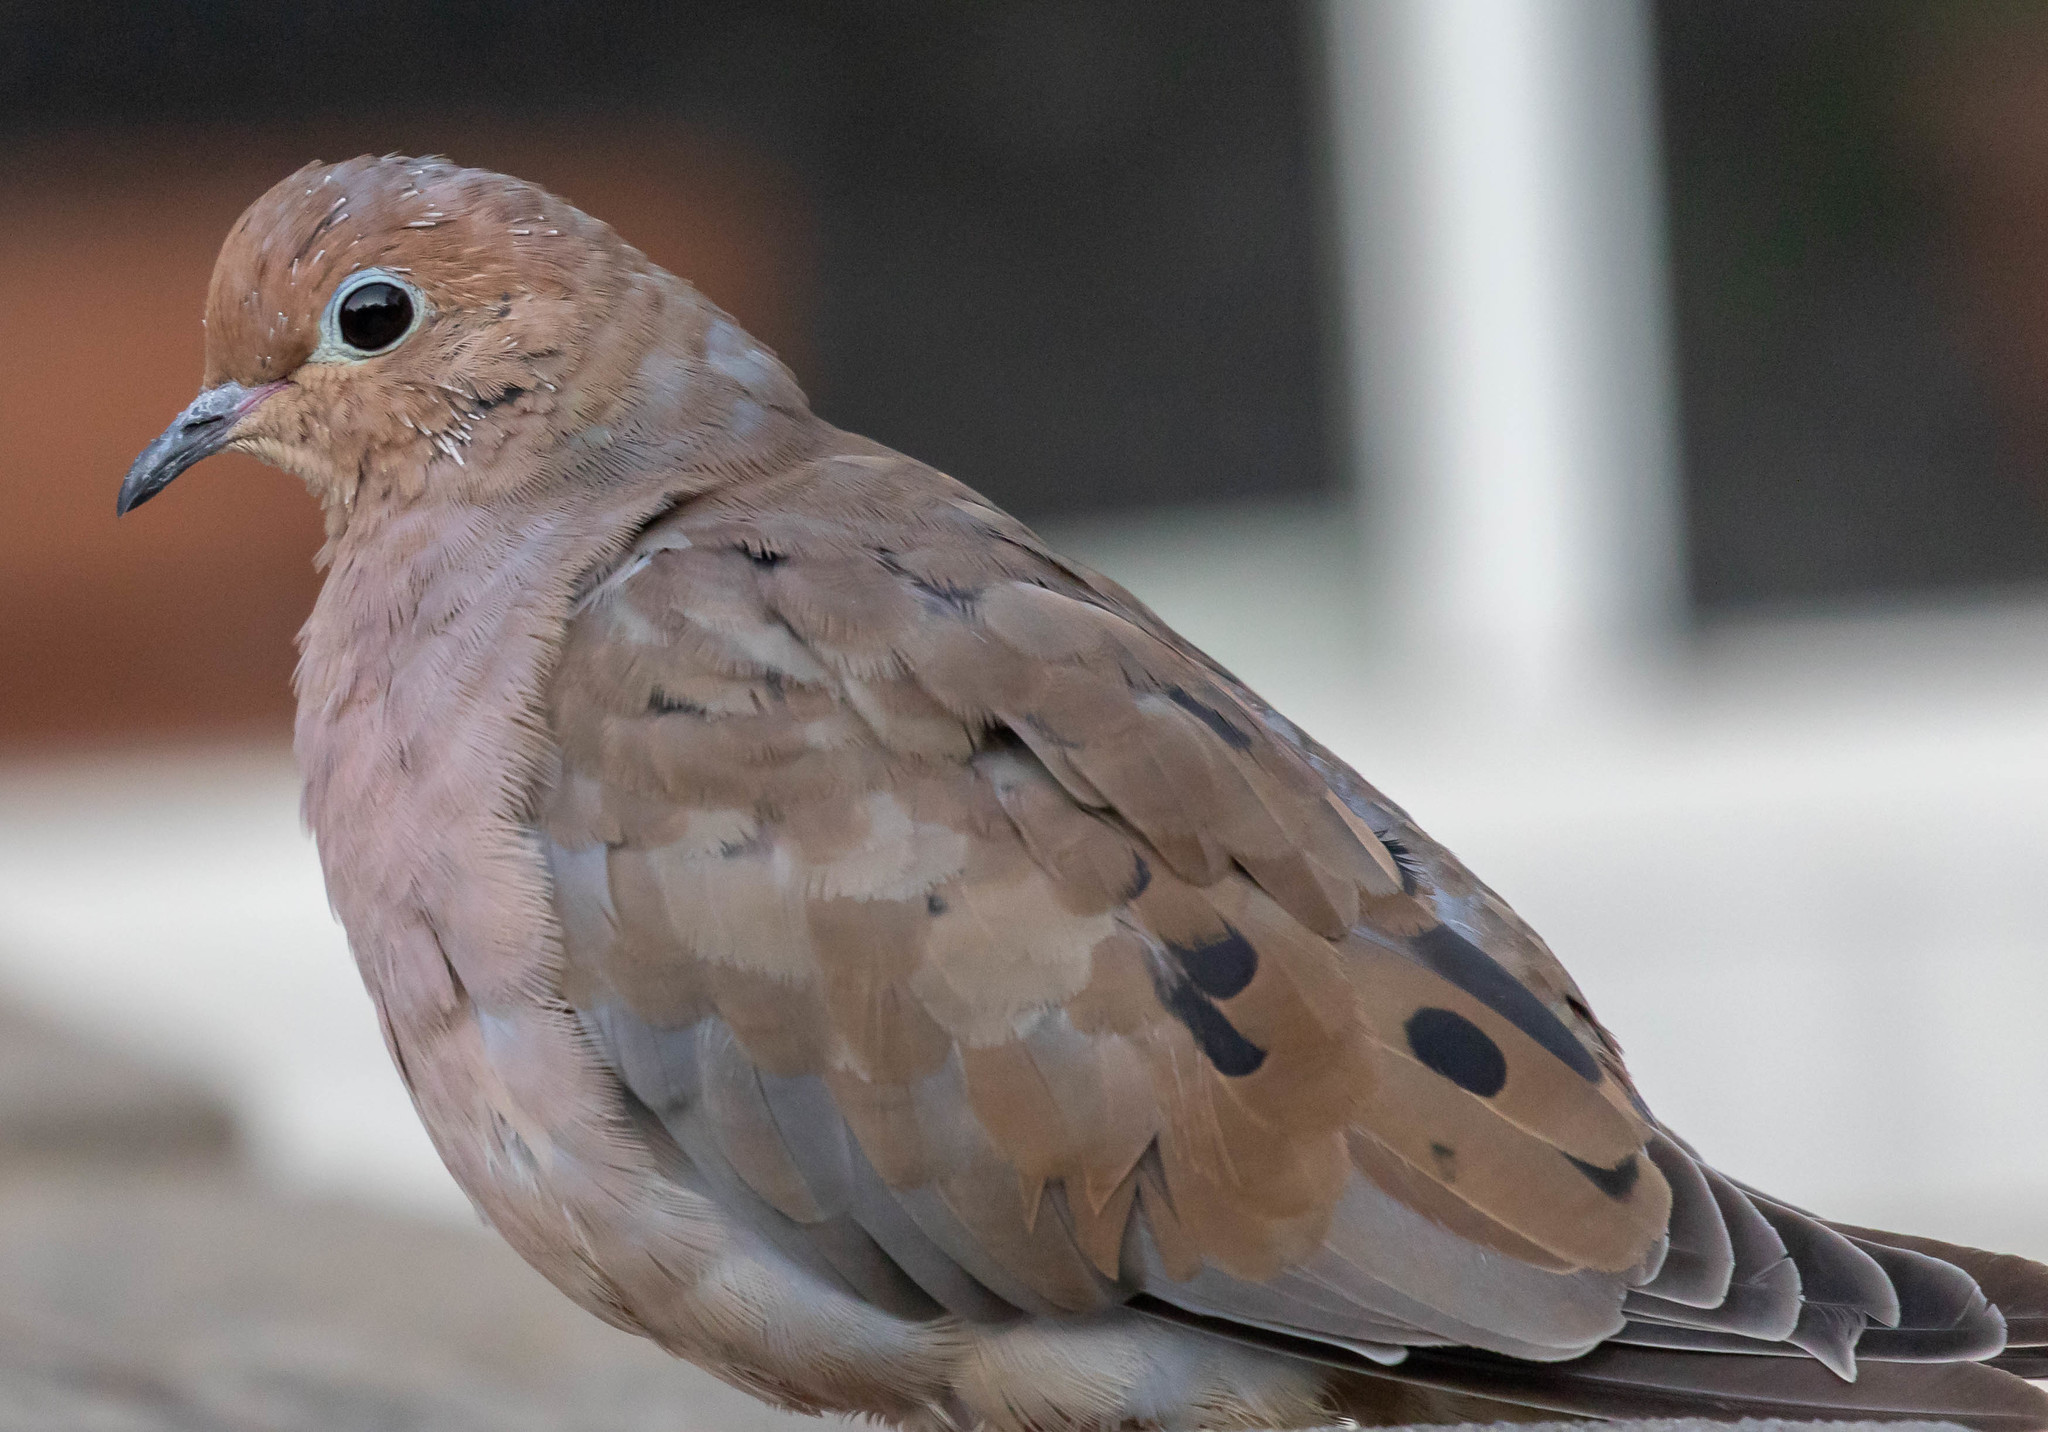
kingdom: Animalia
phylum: Chordata
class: Aves
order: Columbiformes
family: Columbidae
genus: Zenaida
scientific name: Zenaida macroura
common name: Mourning dove
